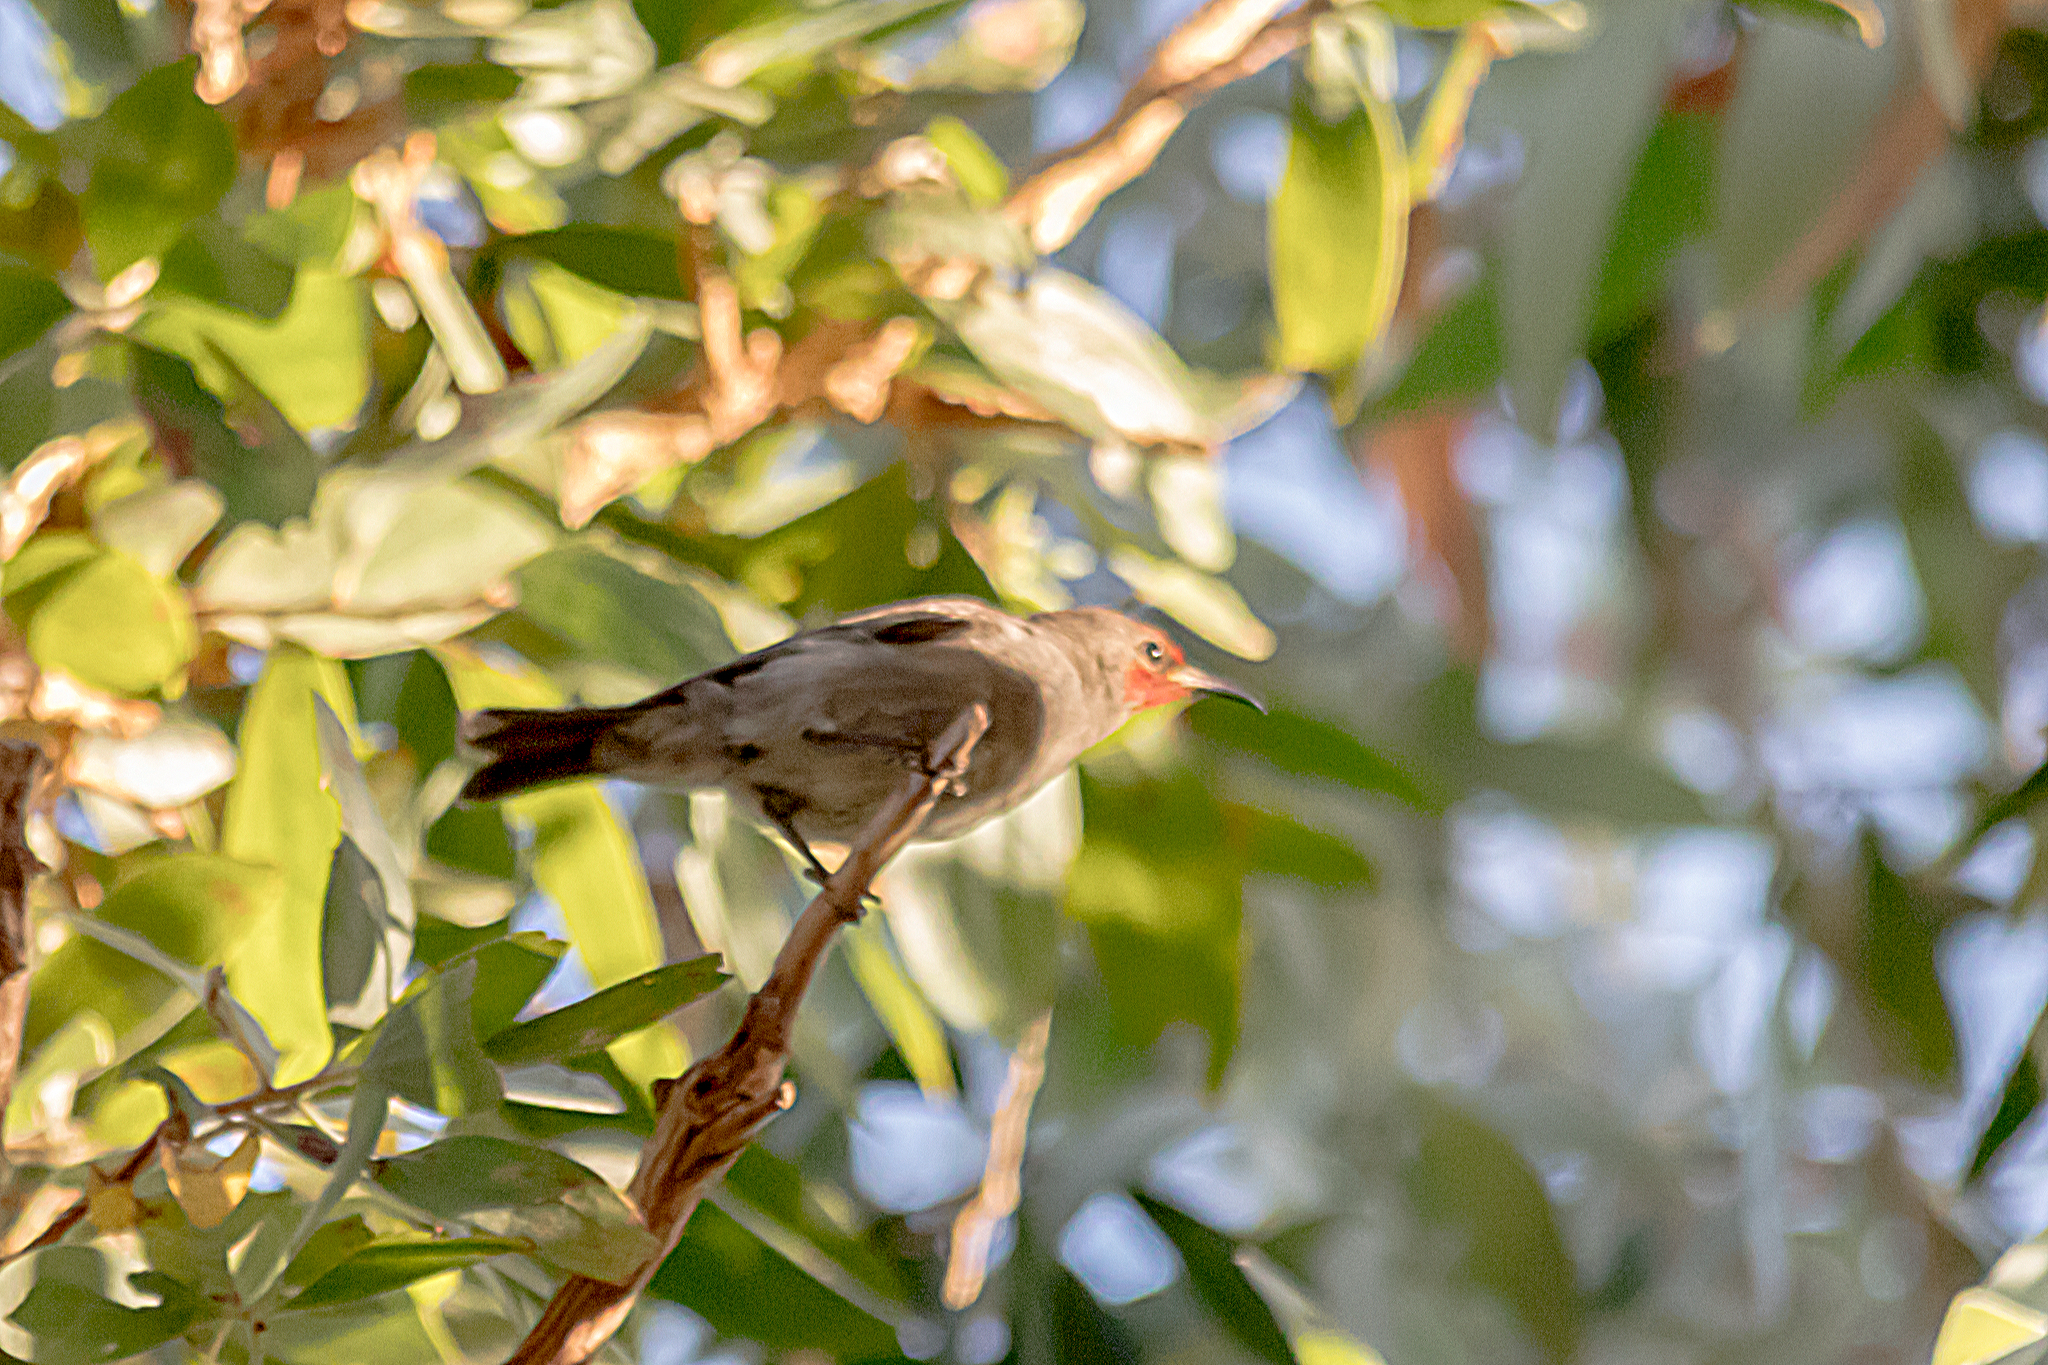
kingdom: Animalia
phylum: Chordata
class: Aves
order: Passeriformes
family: Meliphagidae
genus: Myzomela
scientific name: Myzomela erythrocephala
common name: Red-headed myzomela
